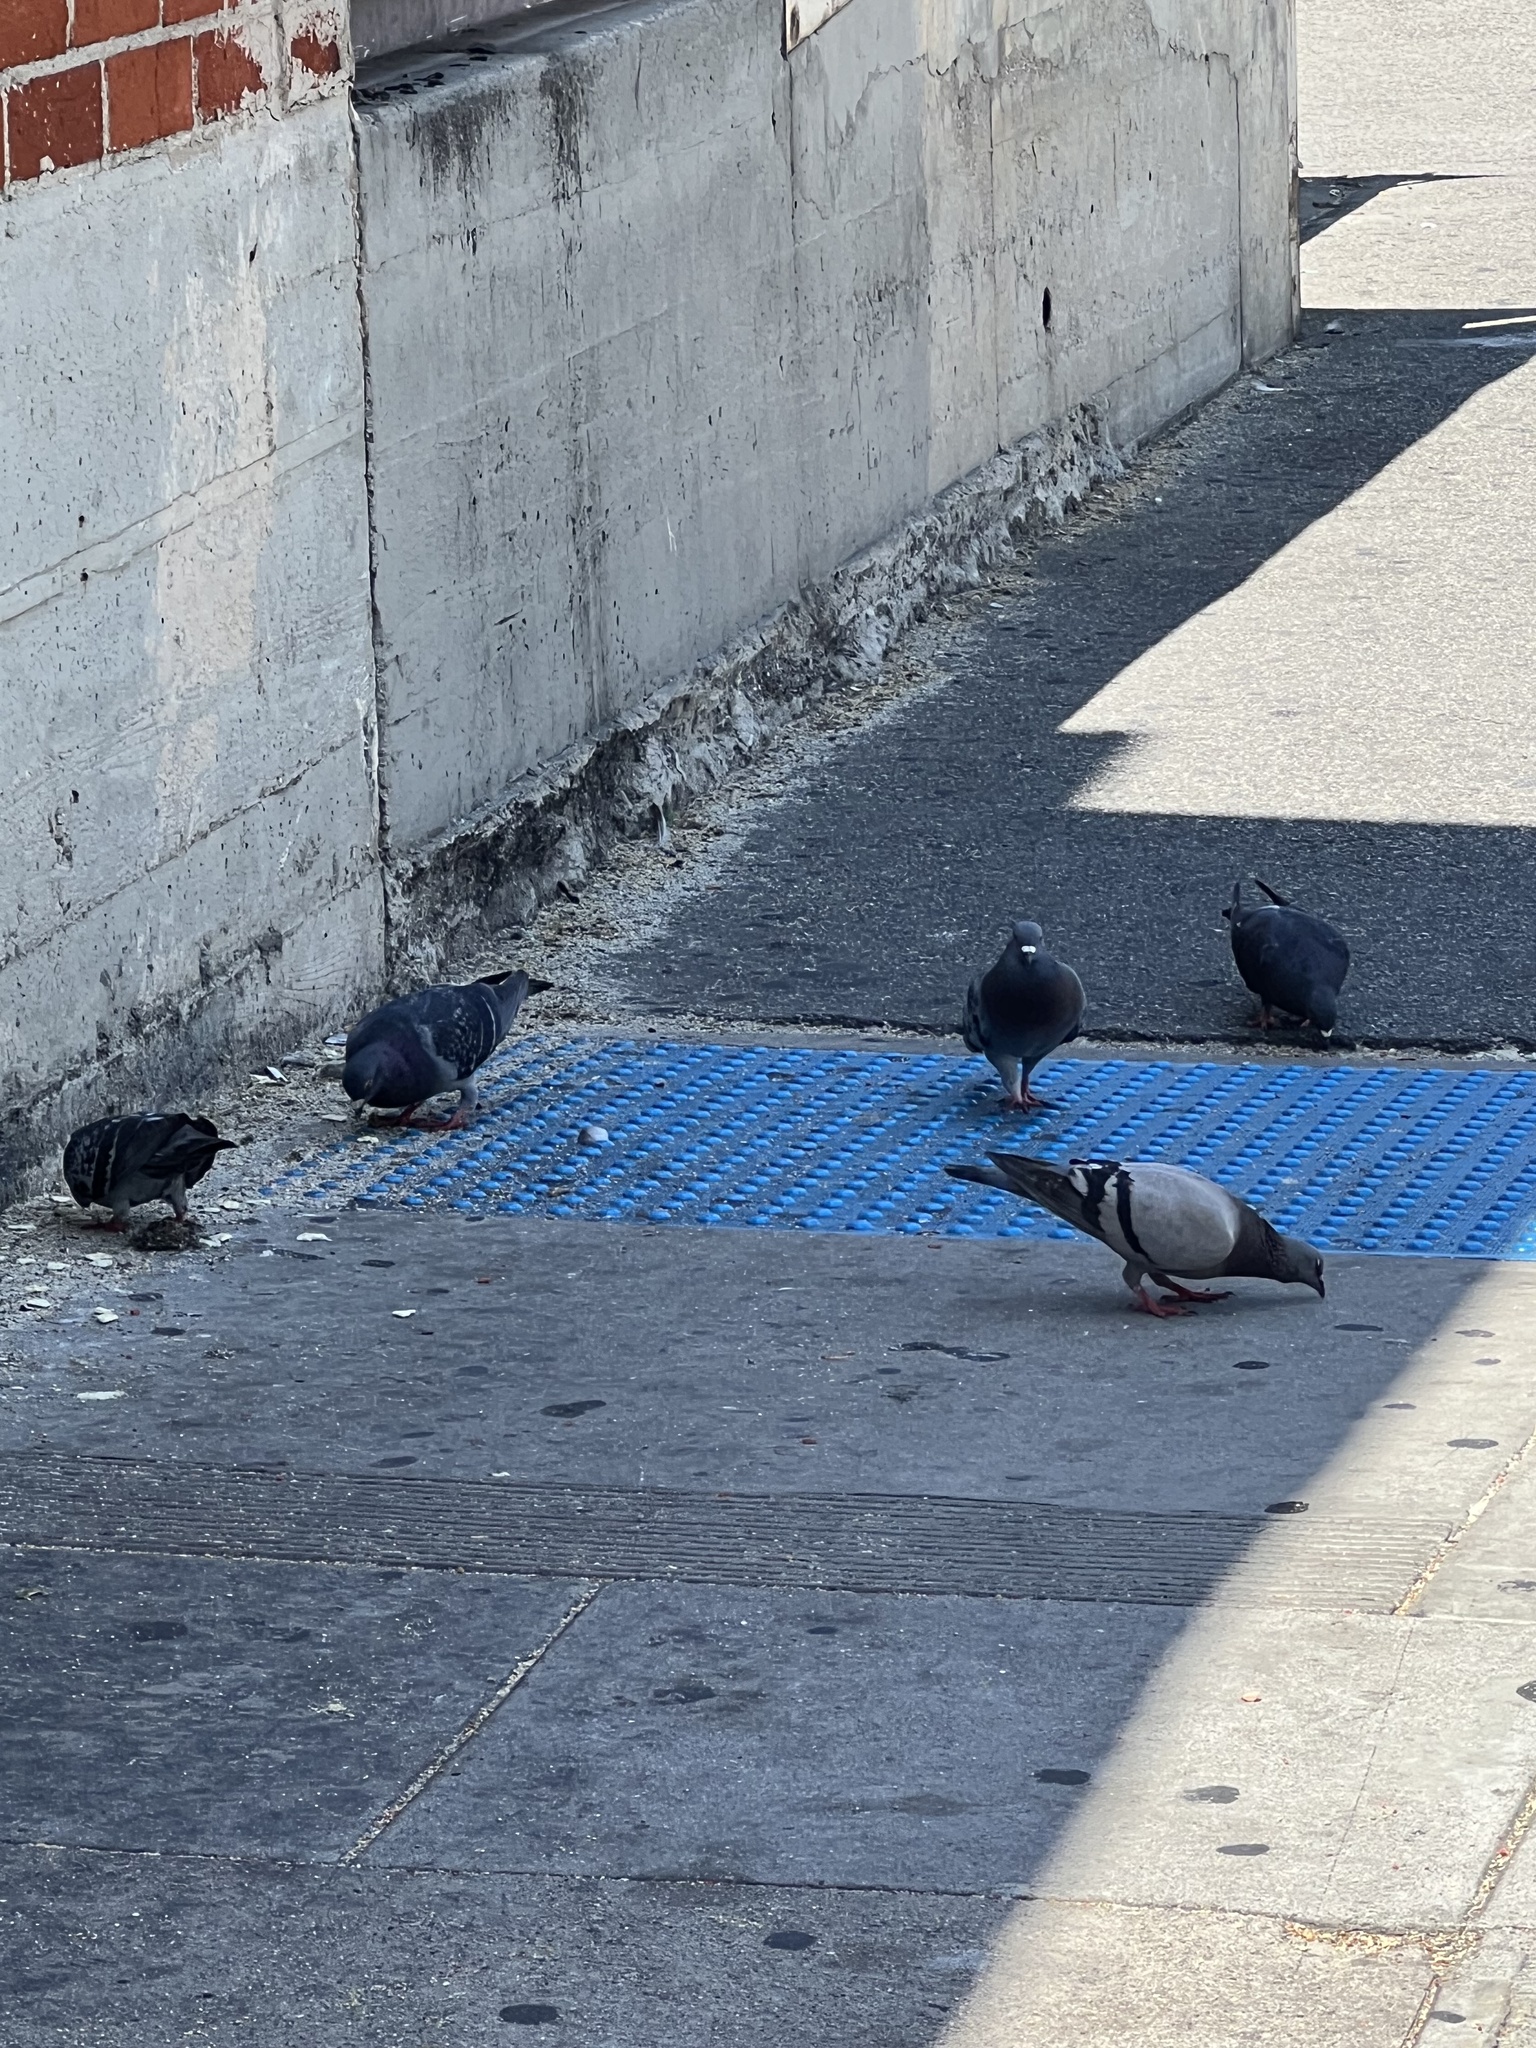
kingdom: Animalia
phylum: Chordata
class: Aves
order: Columbiformes
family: Columbidae
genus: Columba
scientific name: Columba livia
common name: Rock pigeon
